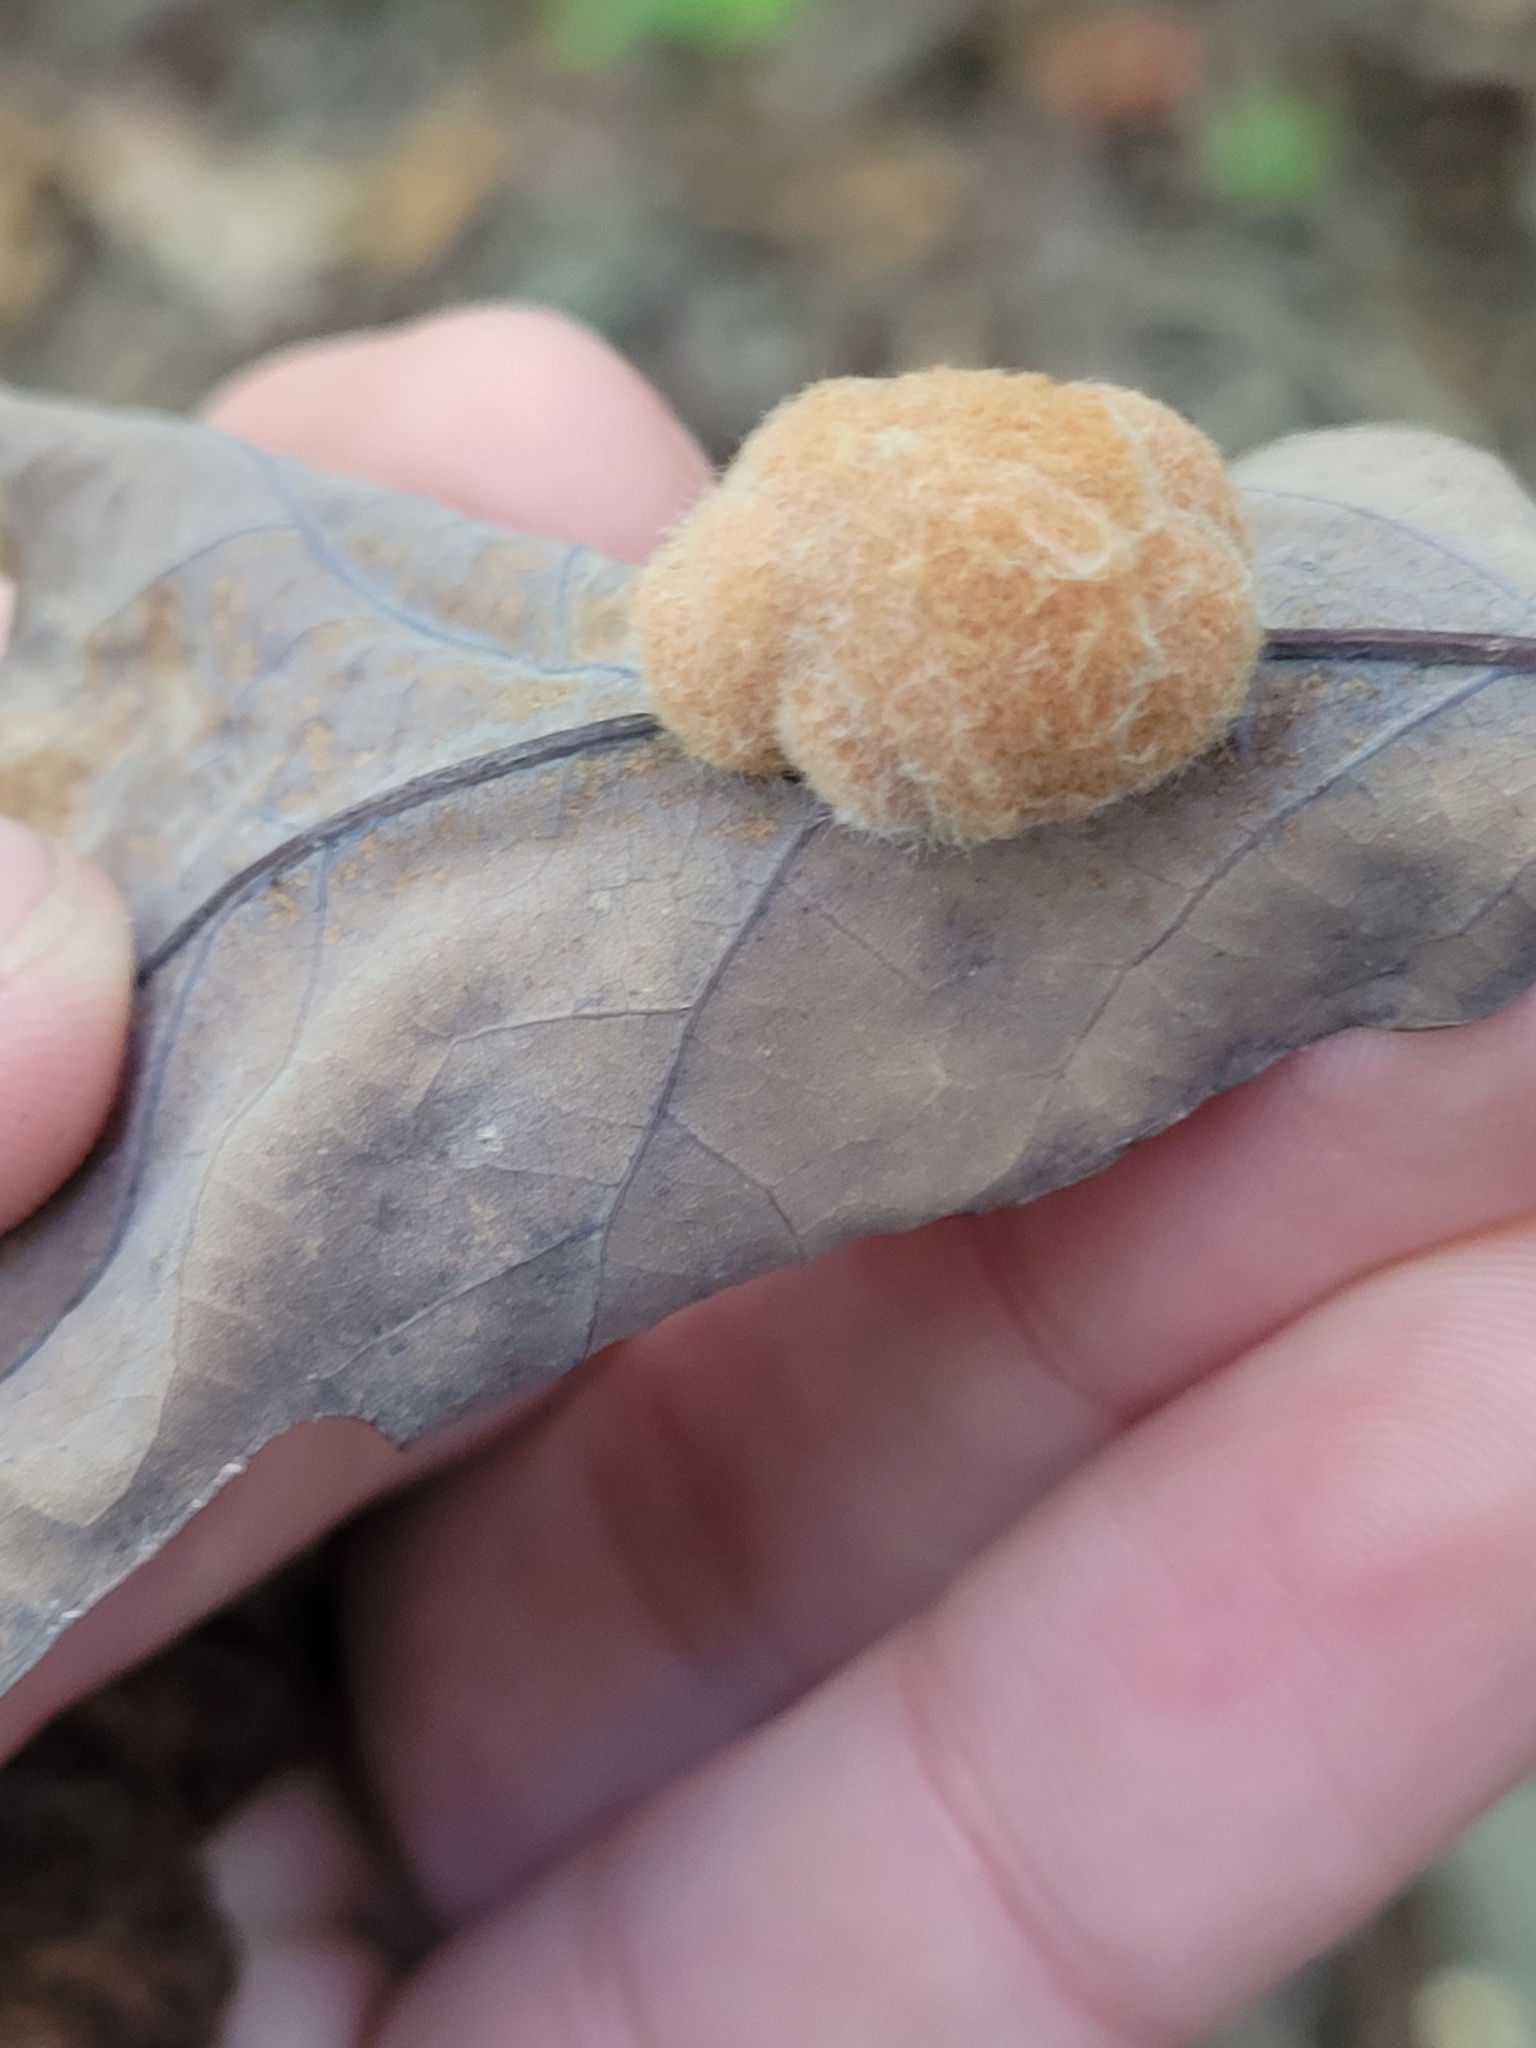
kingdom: Animalia
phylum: Arthropoda
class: Insecta
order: Hymenoptera
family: Cynipidae
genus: Andricus
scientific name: Andricus quercusflocci
